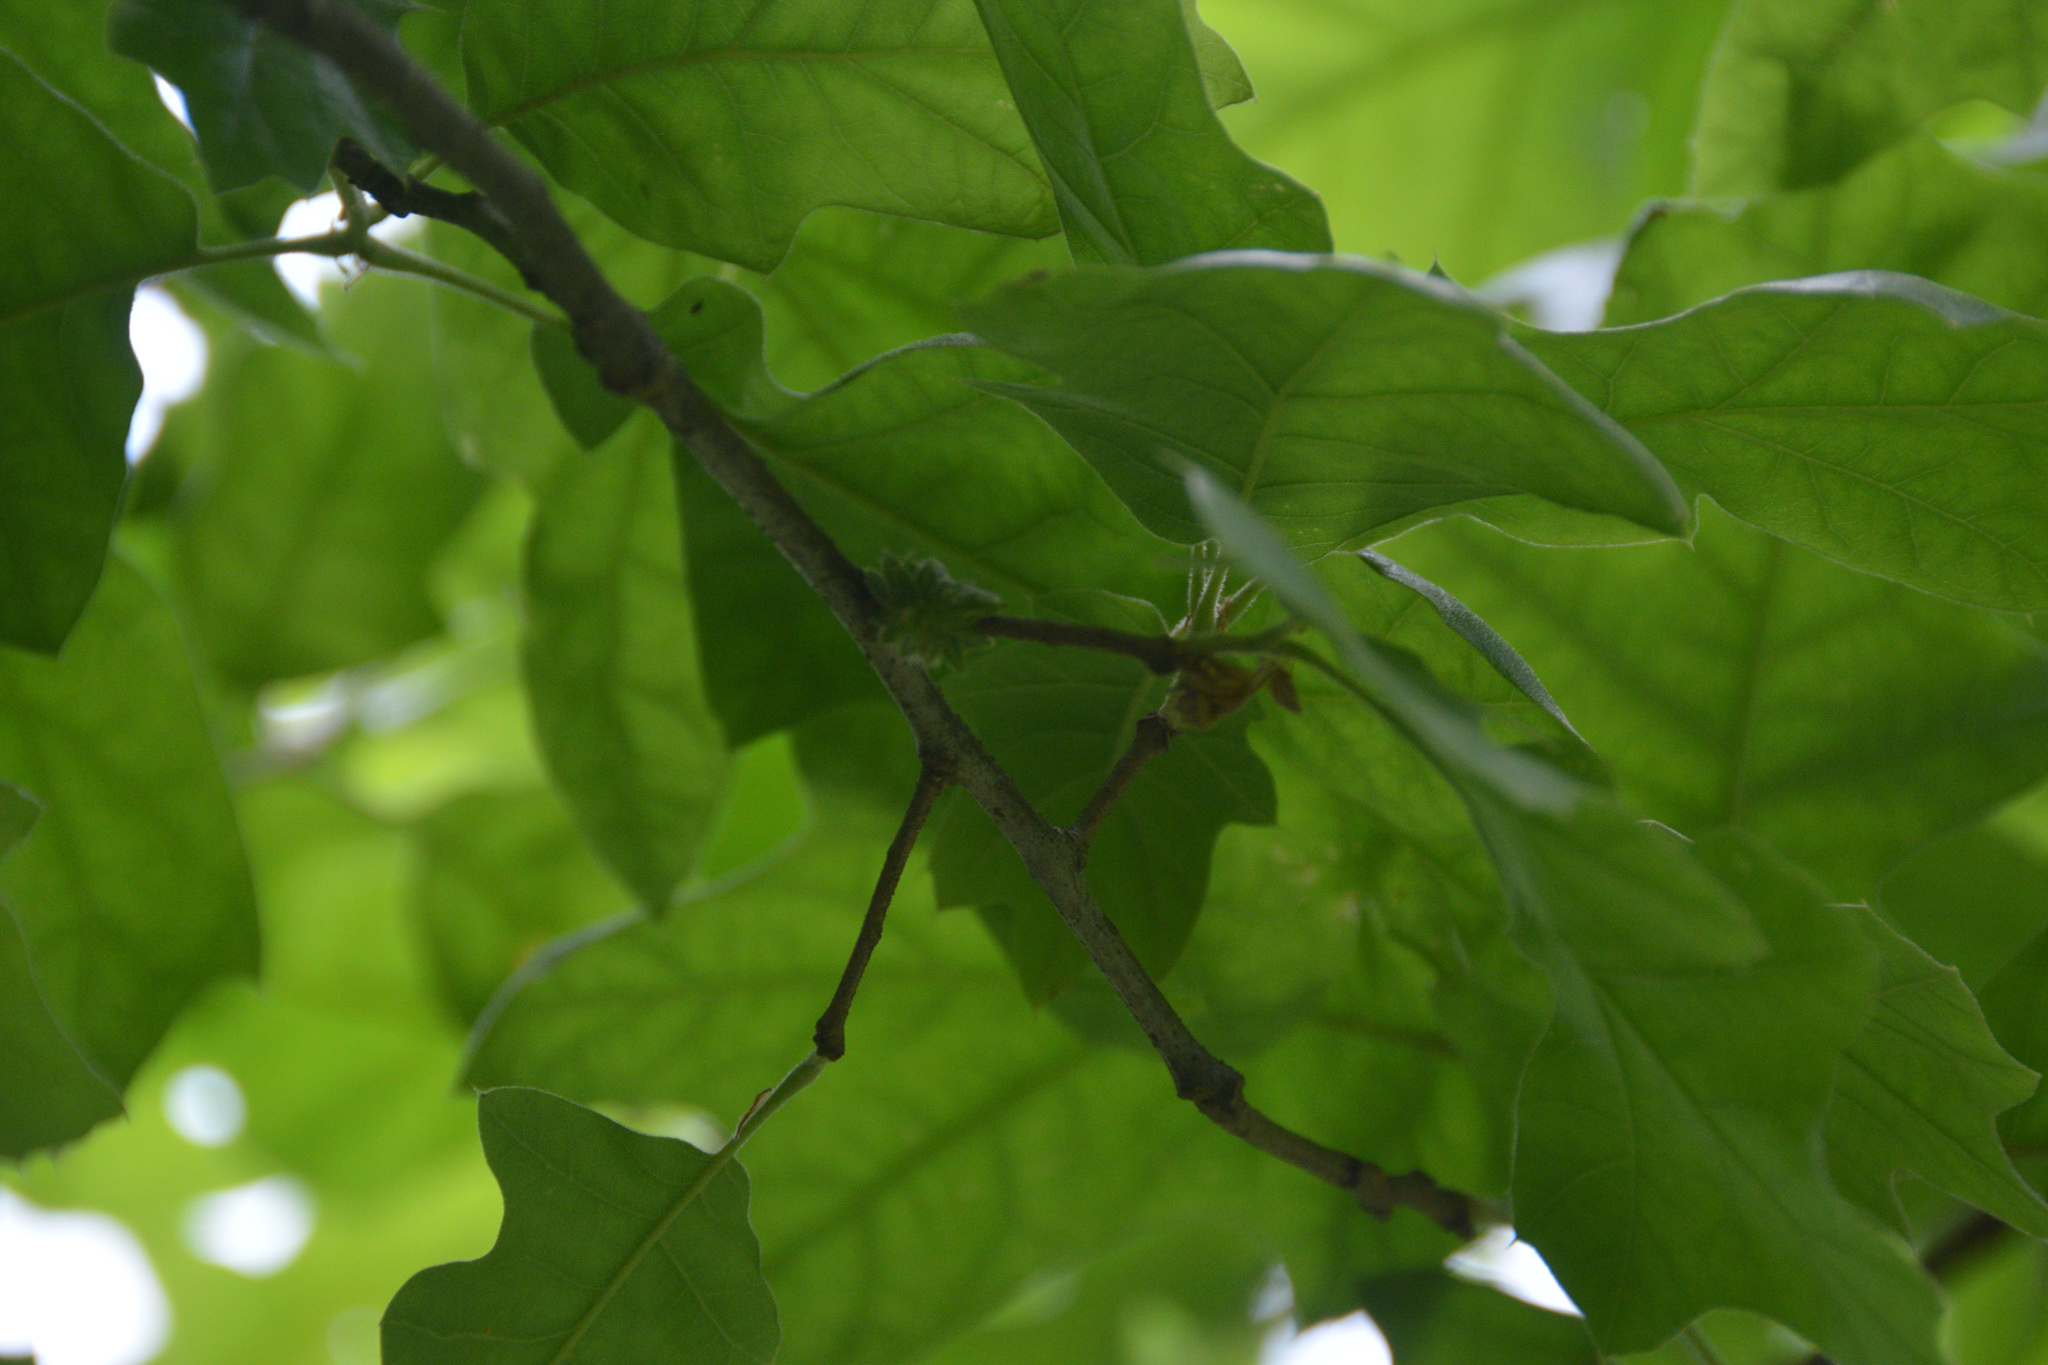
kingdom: Animalia
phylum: Arthropoda
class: Insecta
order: Hymenoptera
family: Cynipidae
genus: Dryocosmus
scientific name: Dryocosmus
